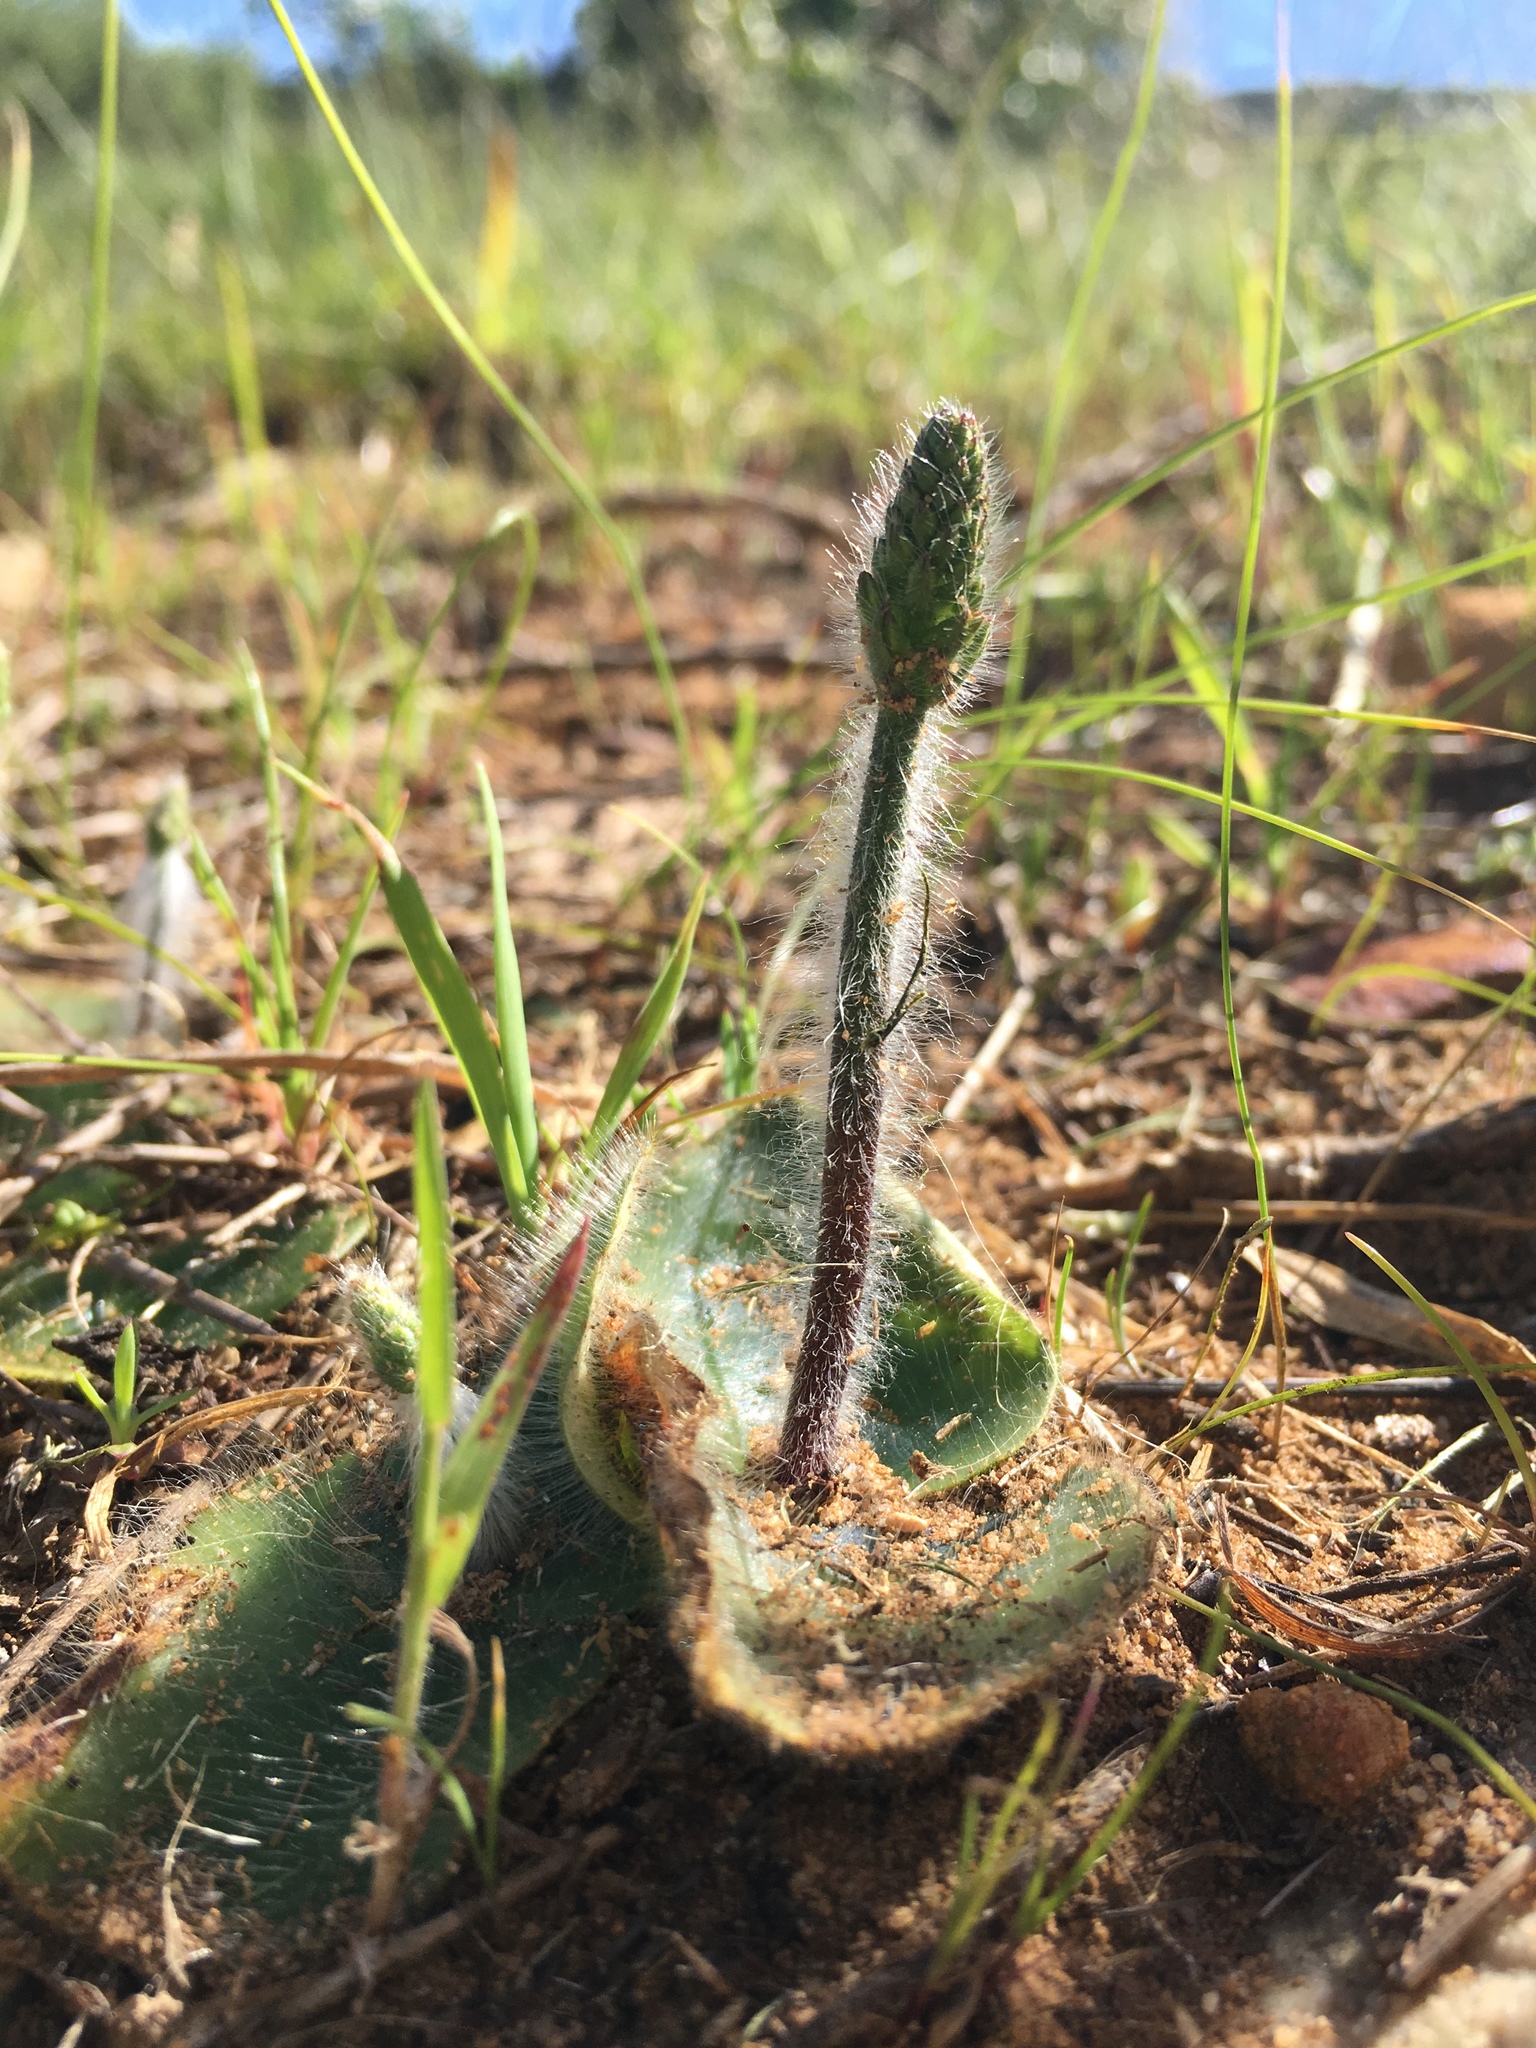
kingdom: Plantae
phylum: Tracheophyta
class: Liliopsida
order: Asparagales
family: Orchidaceae
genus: Holothrix
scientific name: Holothrix villosa
